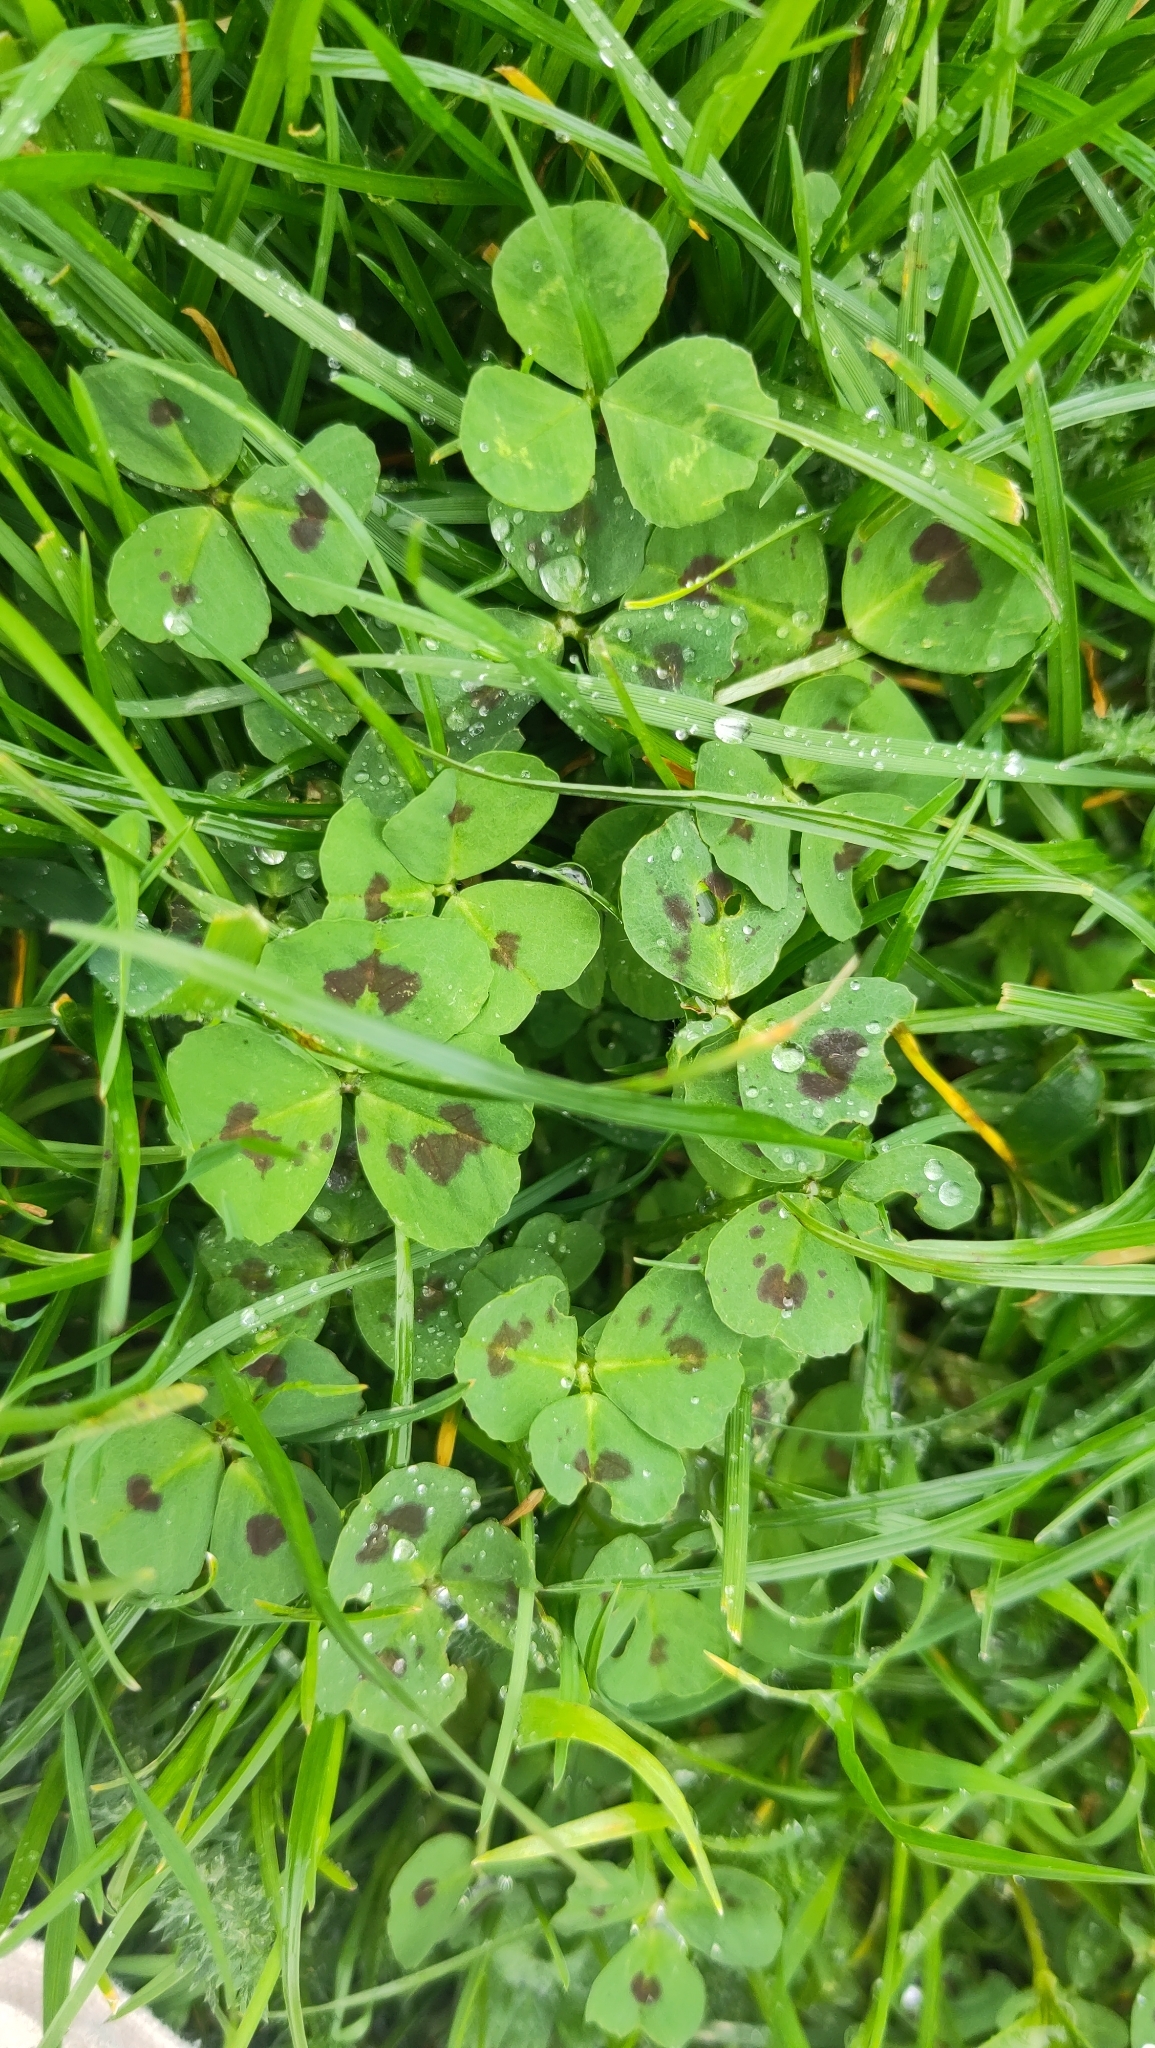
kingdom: Plantae
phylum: Tracheophyta
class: Magnoliopsida
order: Fabales
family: Fabaceae
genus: Medicago
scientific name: Medicago arabica
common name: Spotted medick
